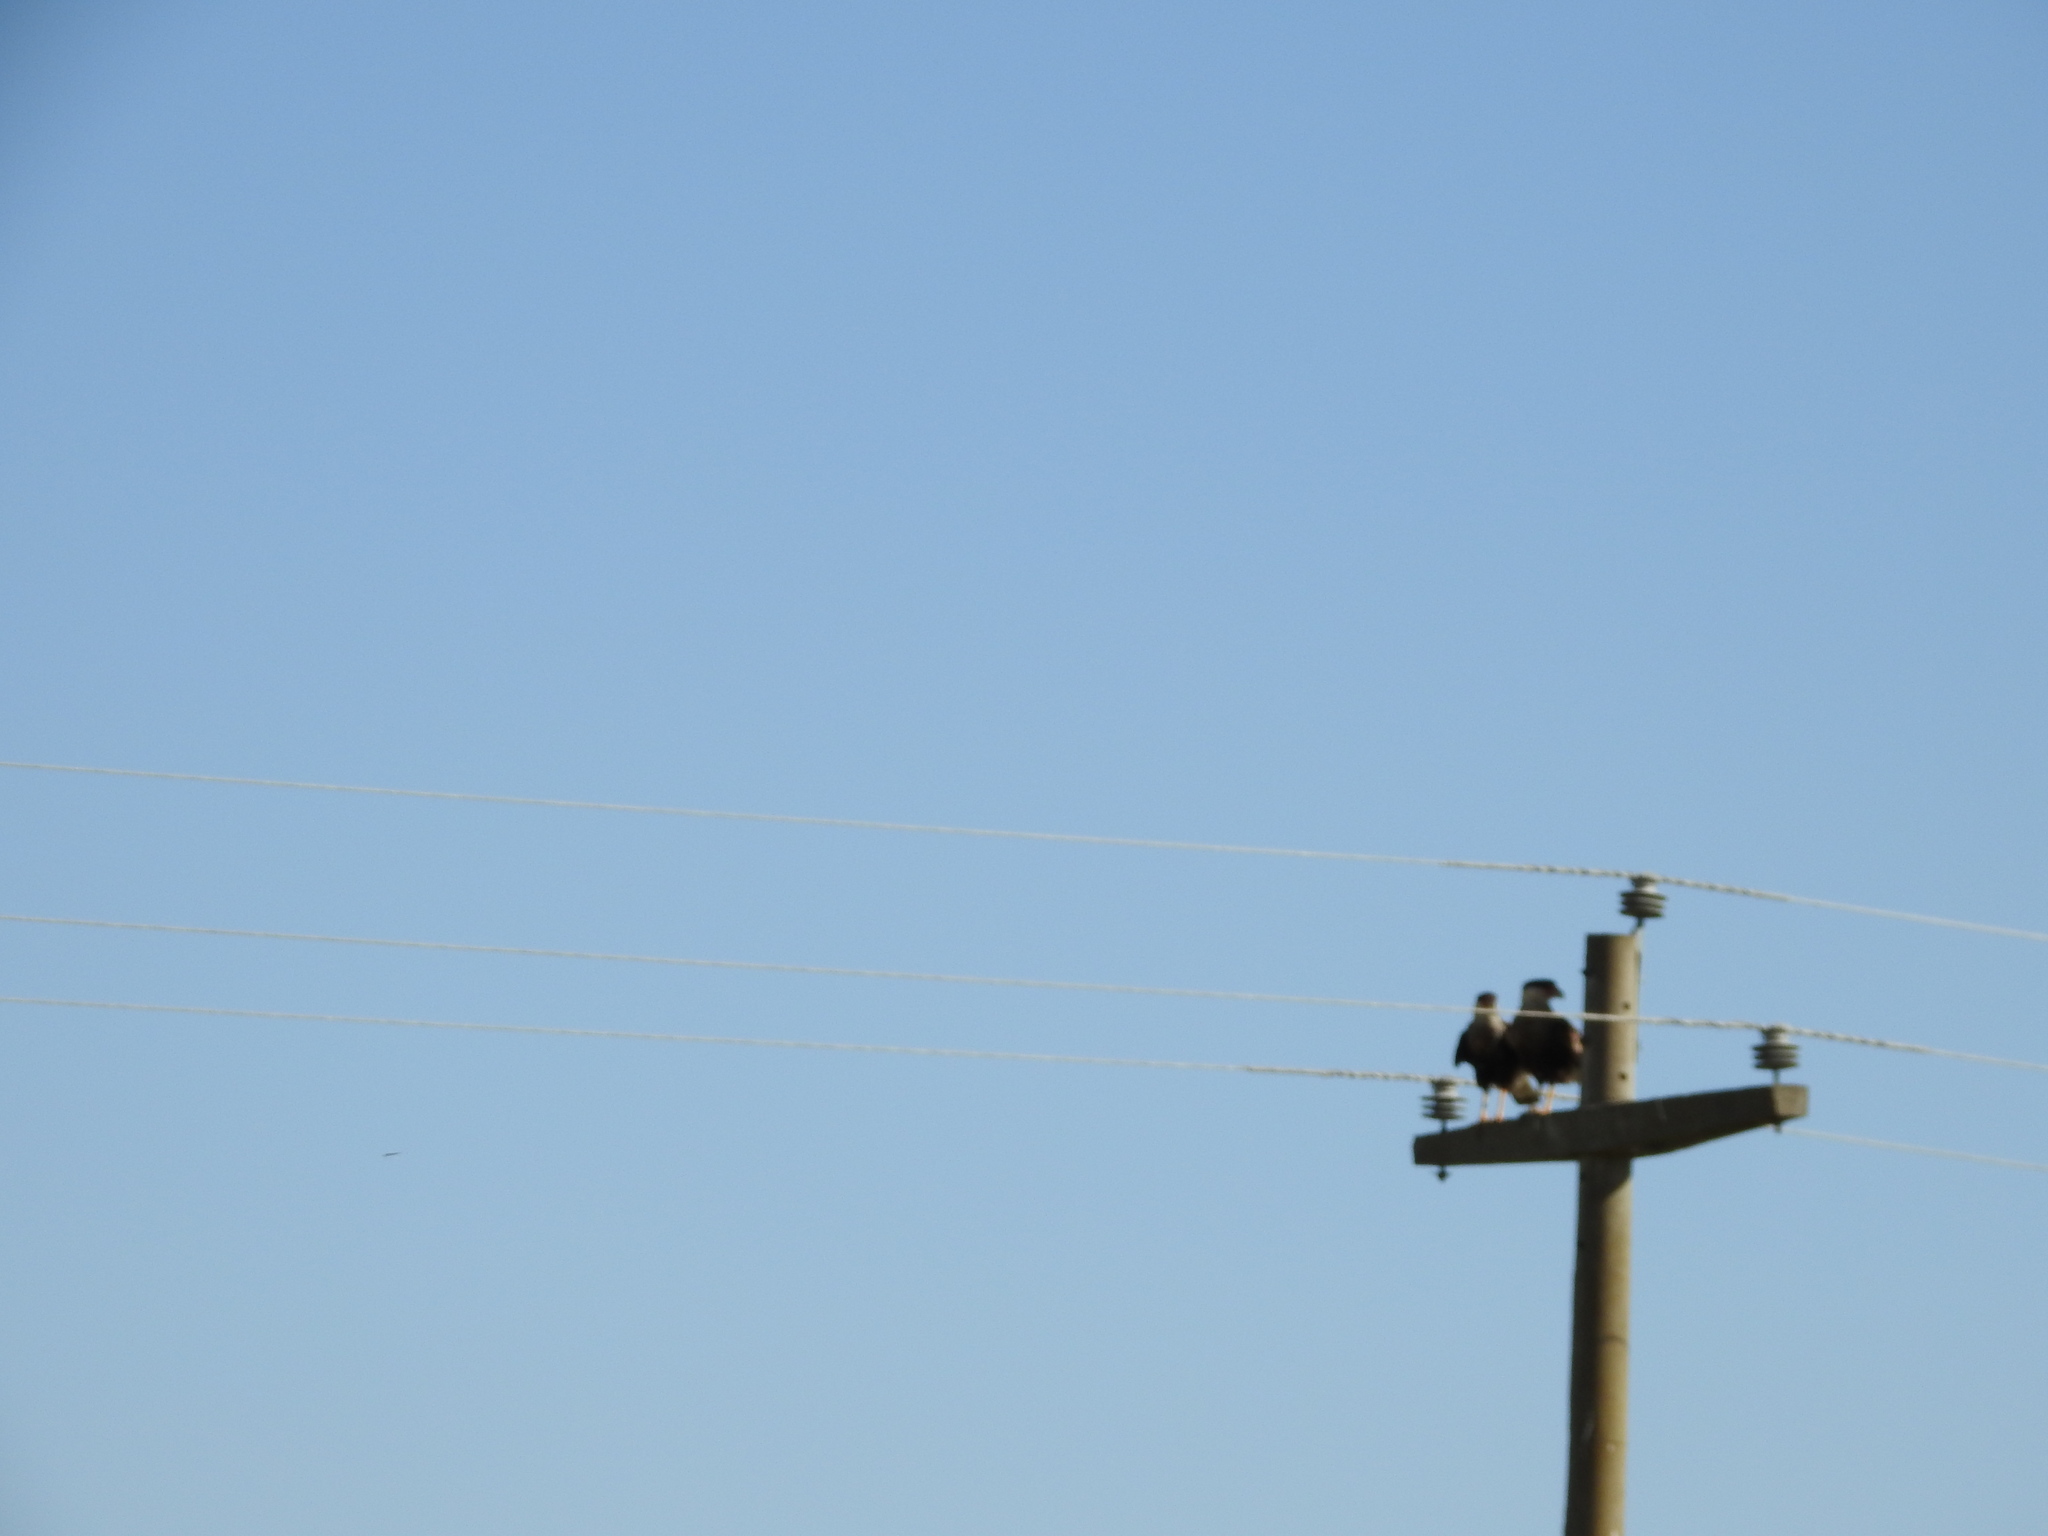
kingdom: Animalia
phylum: Chordata
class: Aves
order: Falconiformes
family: Falconidae
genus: Caracara
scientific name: Caracara plancus
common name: Southern caracara
